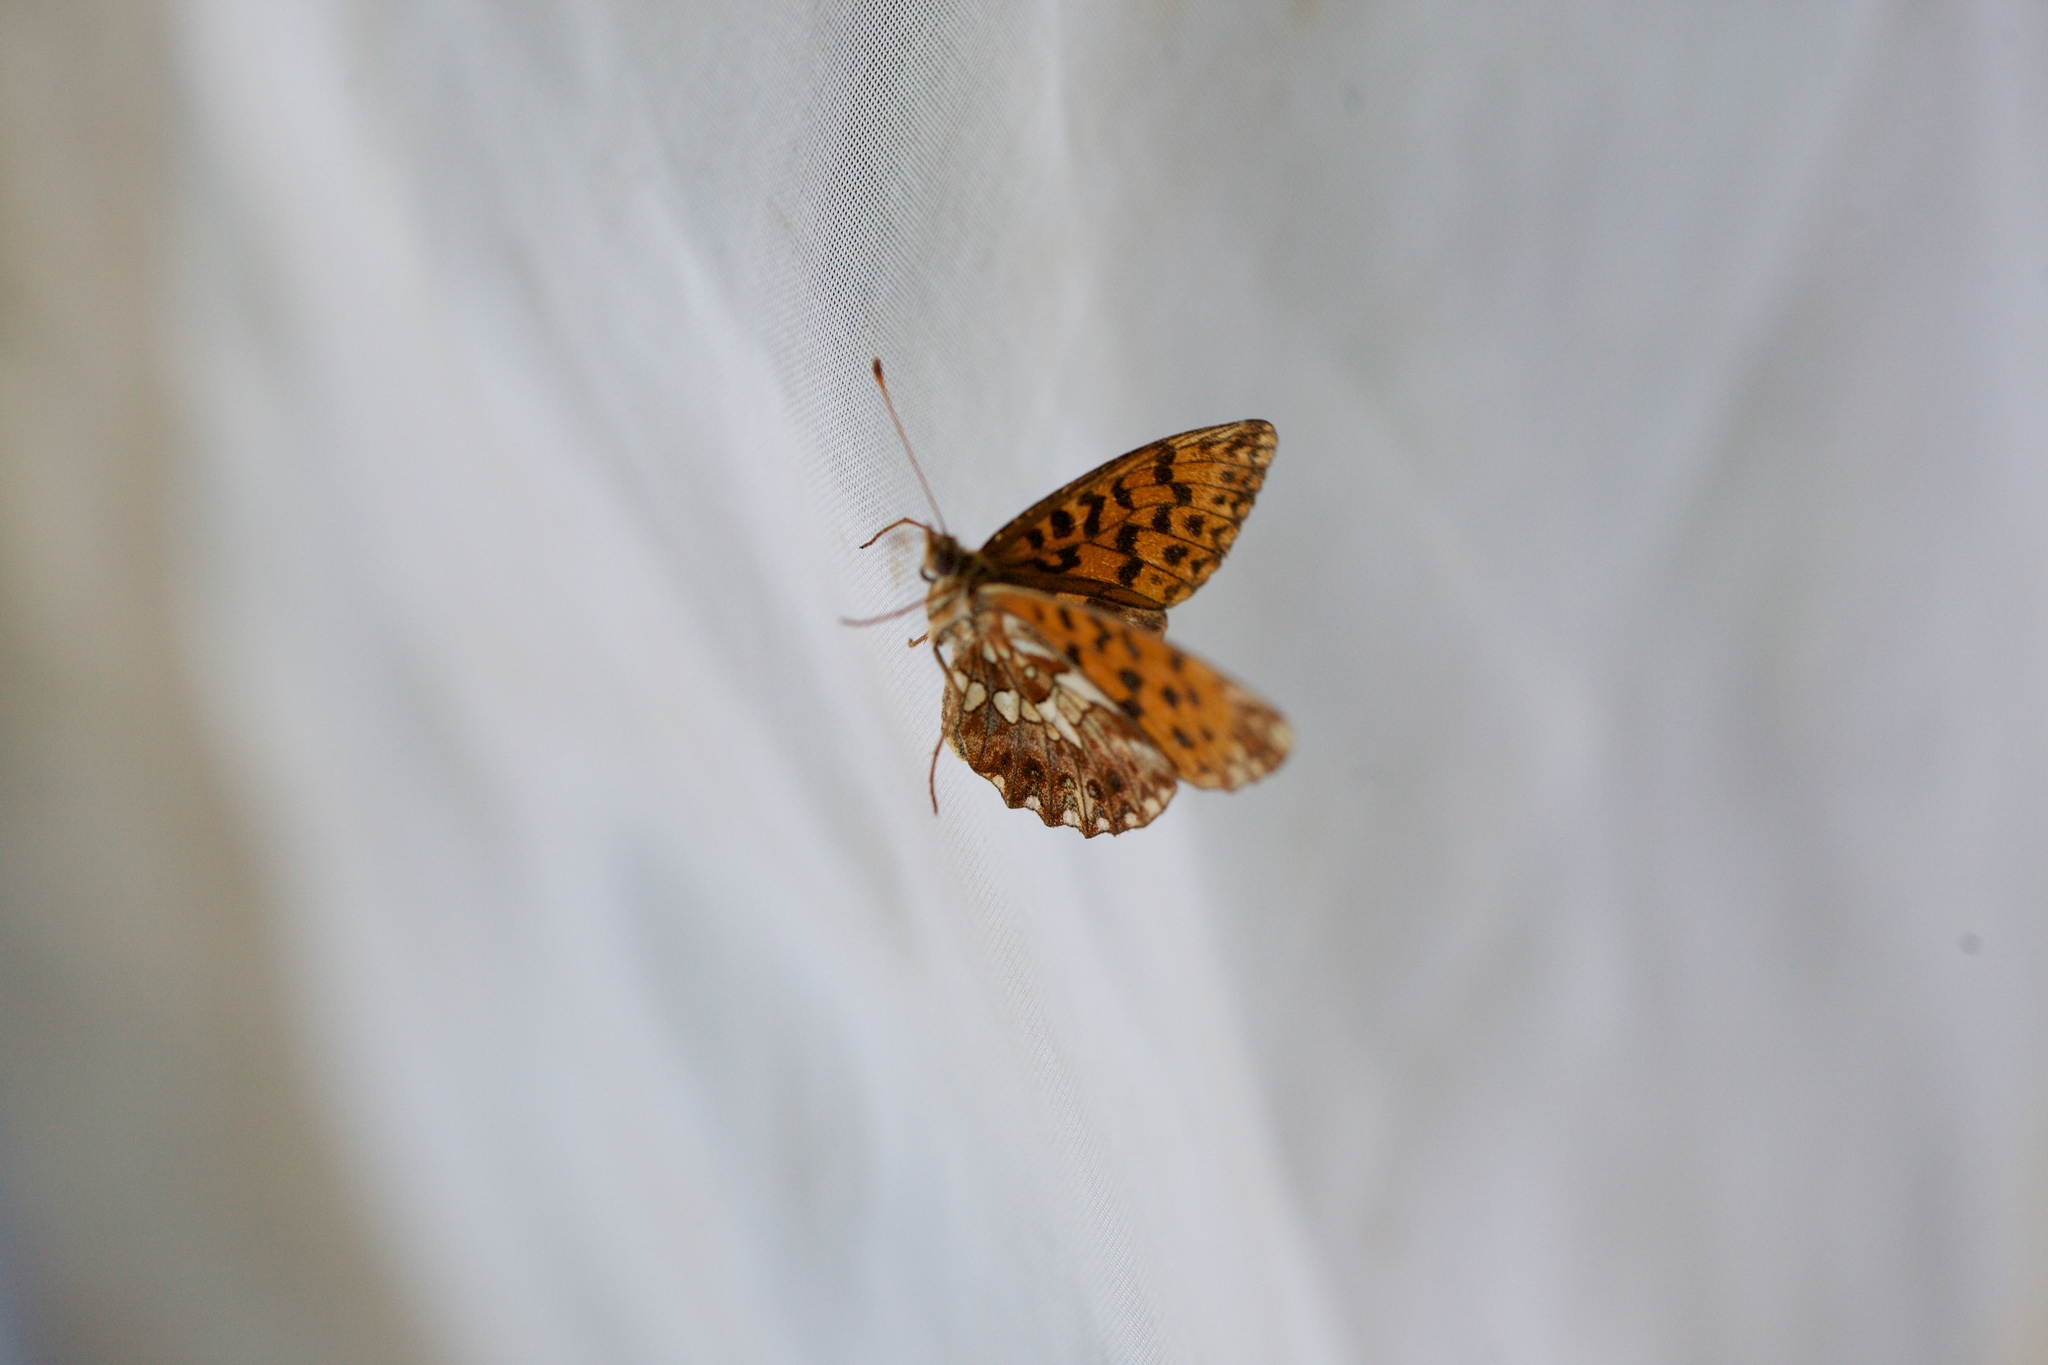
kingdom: Animalia
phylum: Arthropoda
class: Insecta
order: Lepidoptera
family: Nymphalidae
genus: Boloria
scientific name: Boloria dia
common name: Weaver's fritillary
